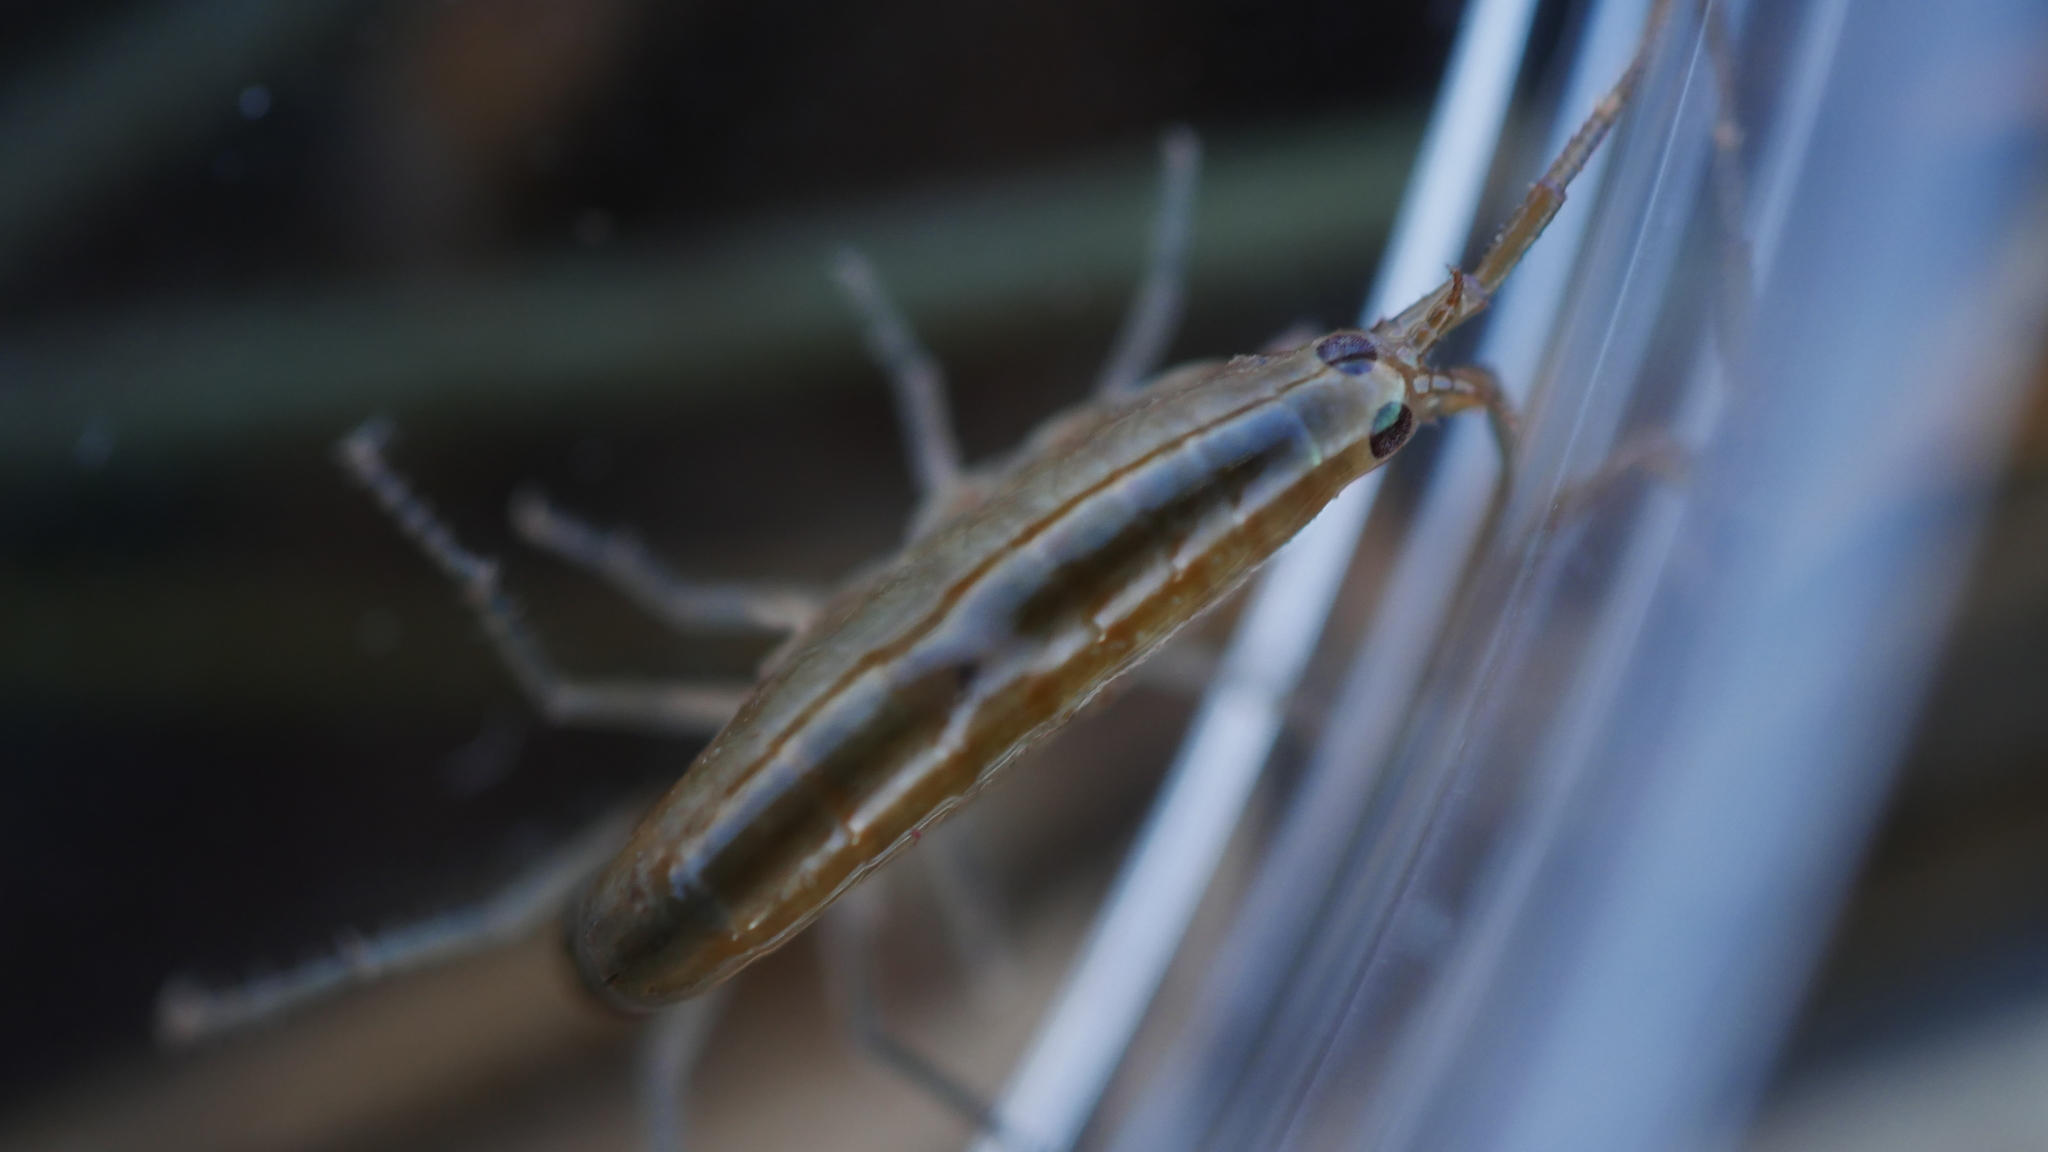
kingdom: Animalia
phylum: Arthropoda
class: Malacostraca
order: Amphipoda
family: Talitridae
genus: Platorchestia
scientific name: Platorchestia
